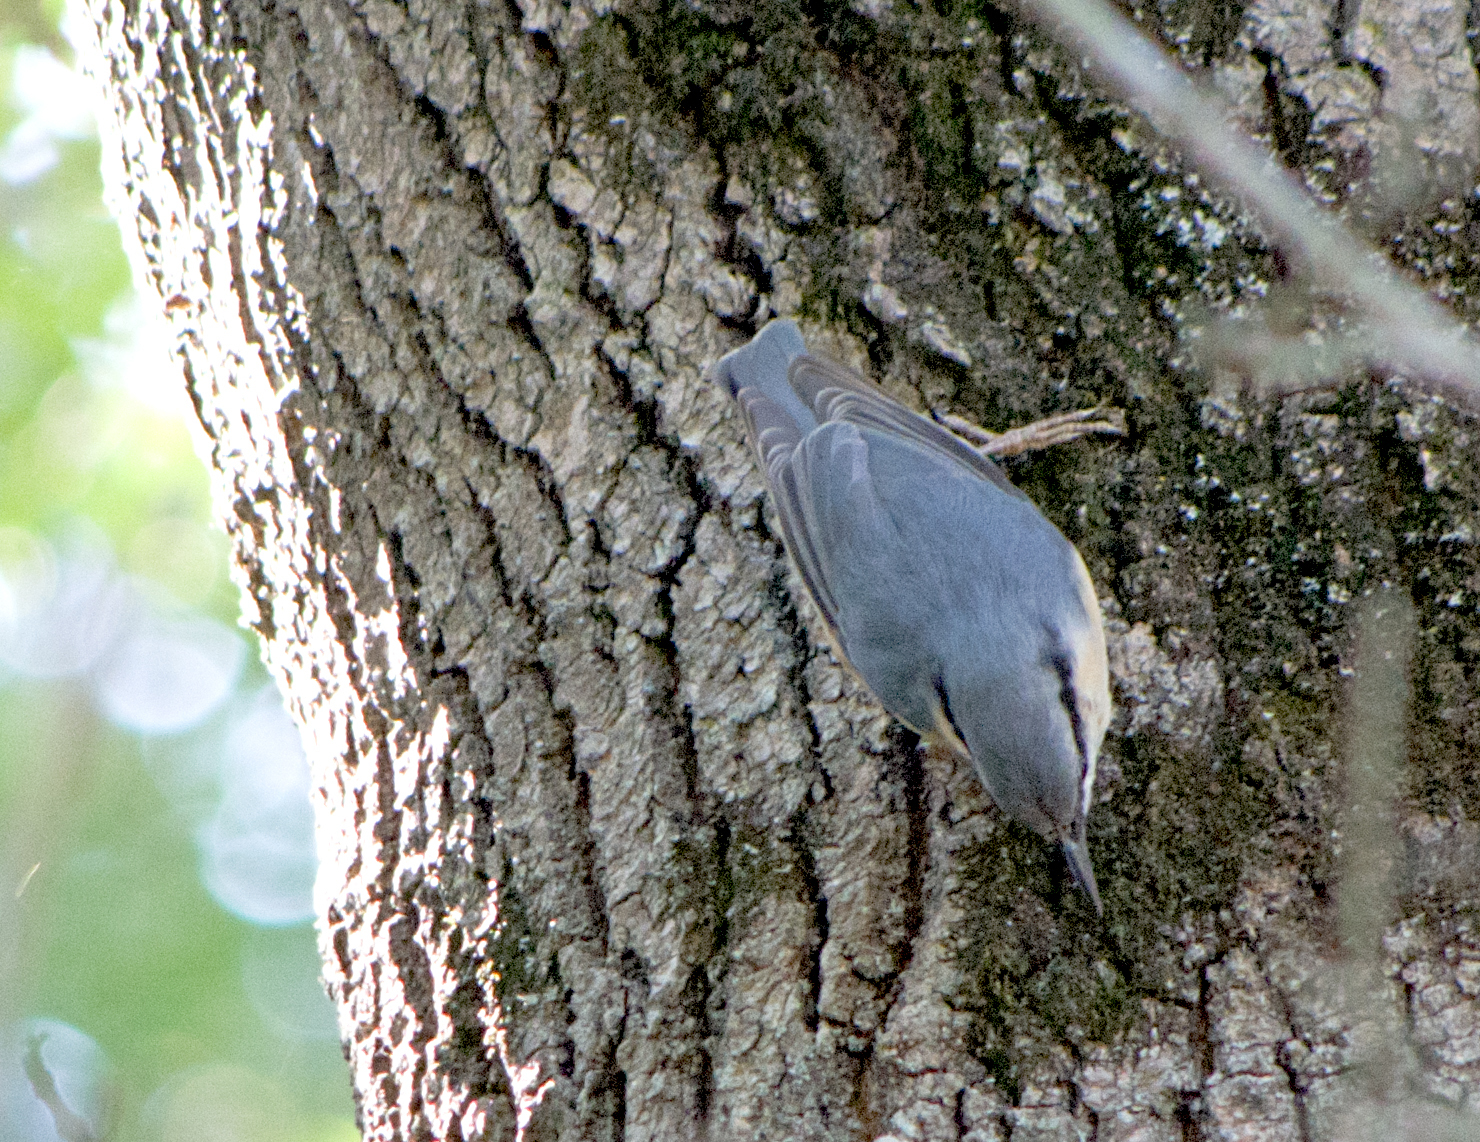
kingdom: Animalia
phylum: Chordata
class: Aves
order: Passeriformes
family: Sittidae
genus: Sitta
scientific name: Sitta europaea
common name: Eurasian nuthatch
